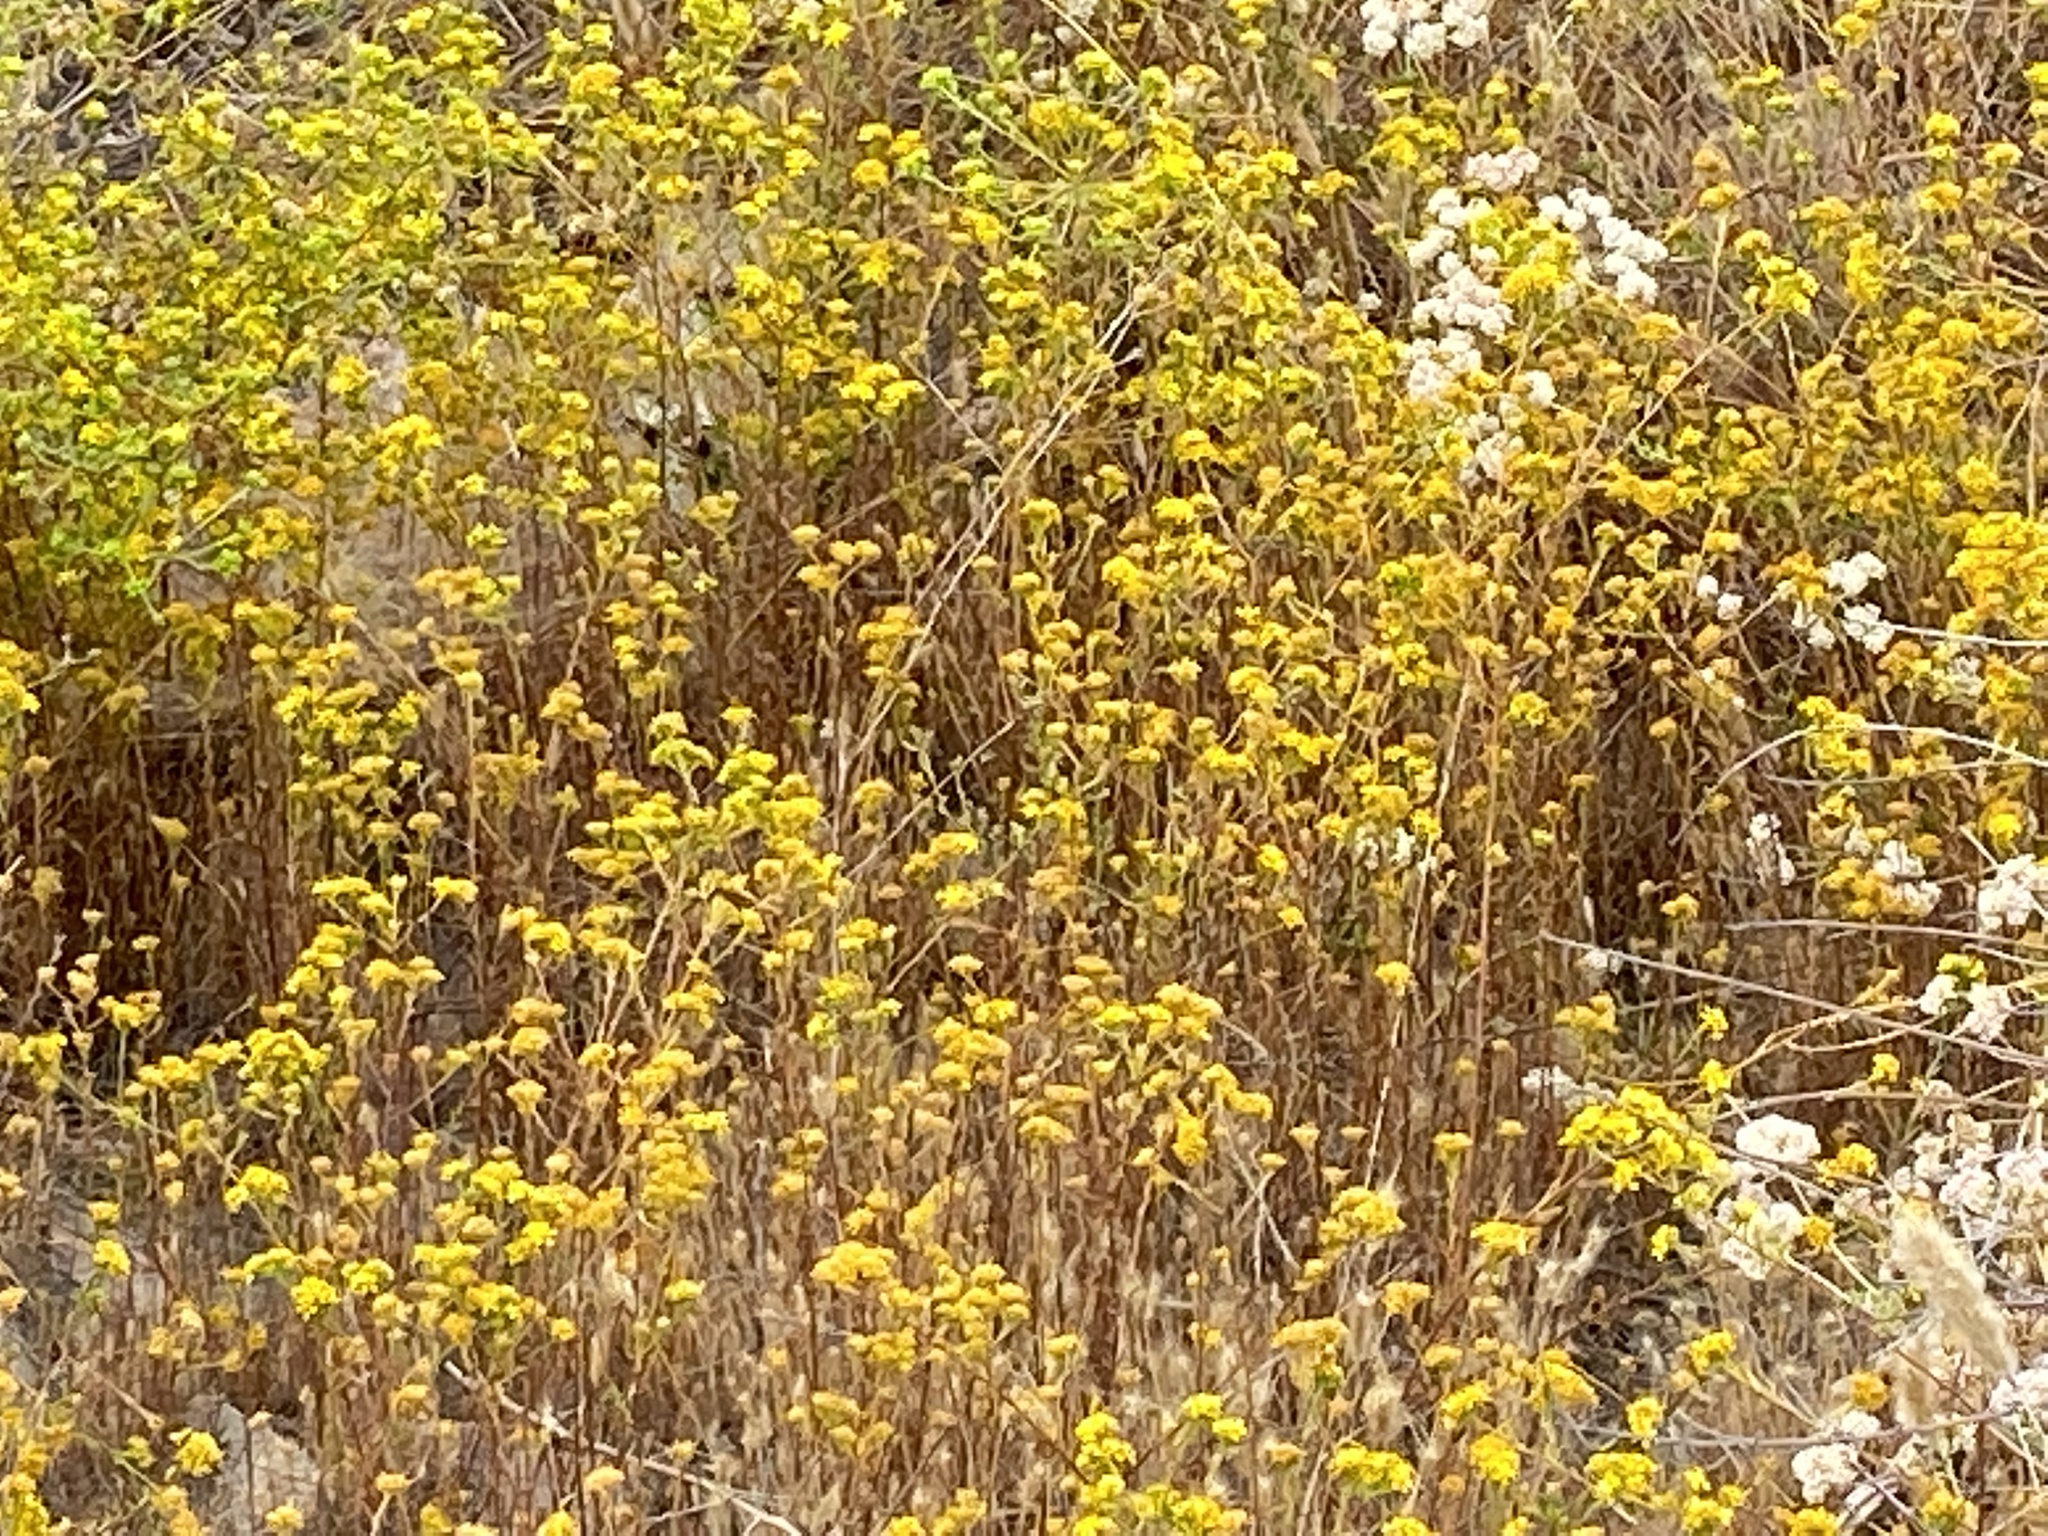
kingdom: Plantae
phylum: Tracheophyta
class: Magnoliopsida
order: Asterales
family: Asteraceae
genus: Deinandra
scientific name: Deinandra fasciculata
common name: Clustered tarweed
